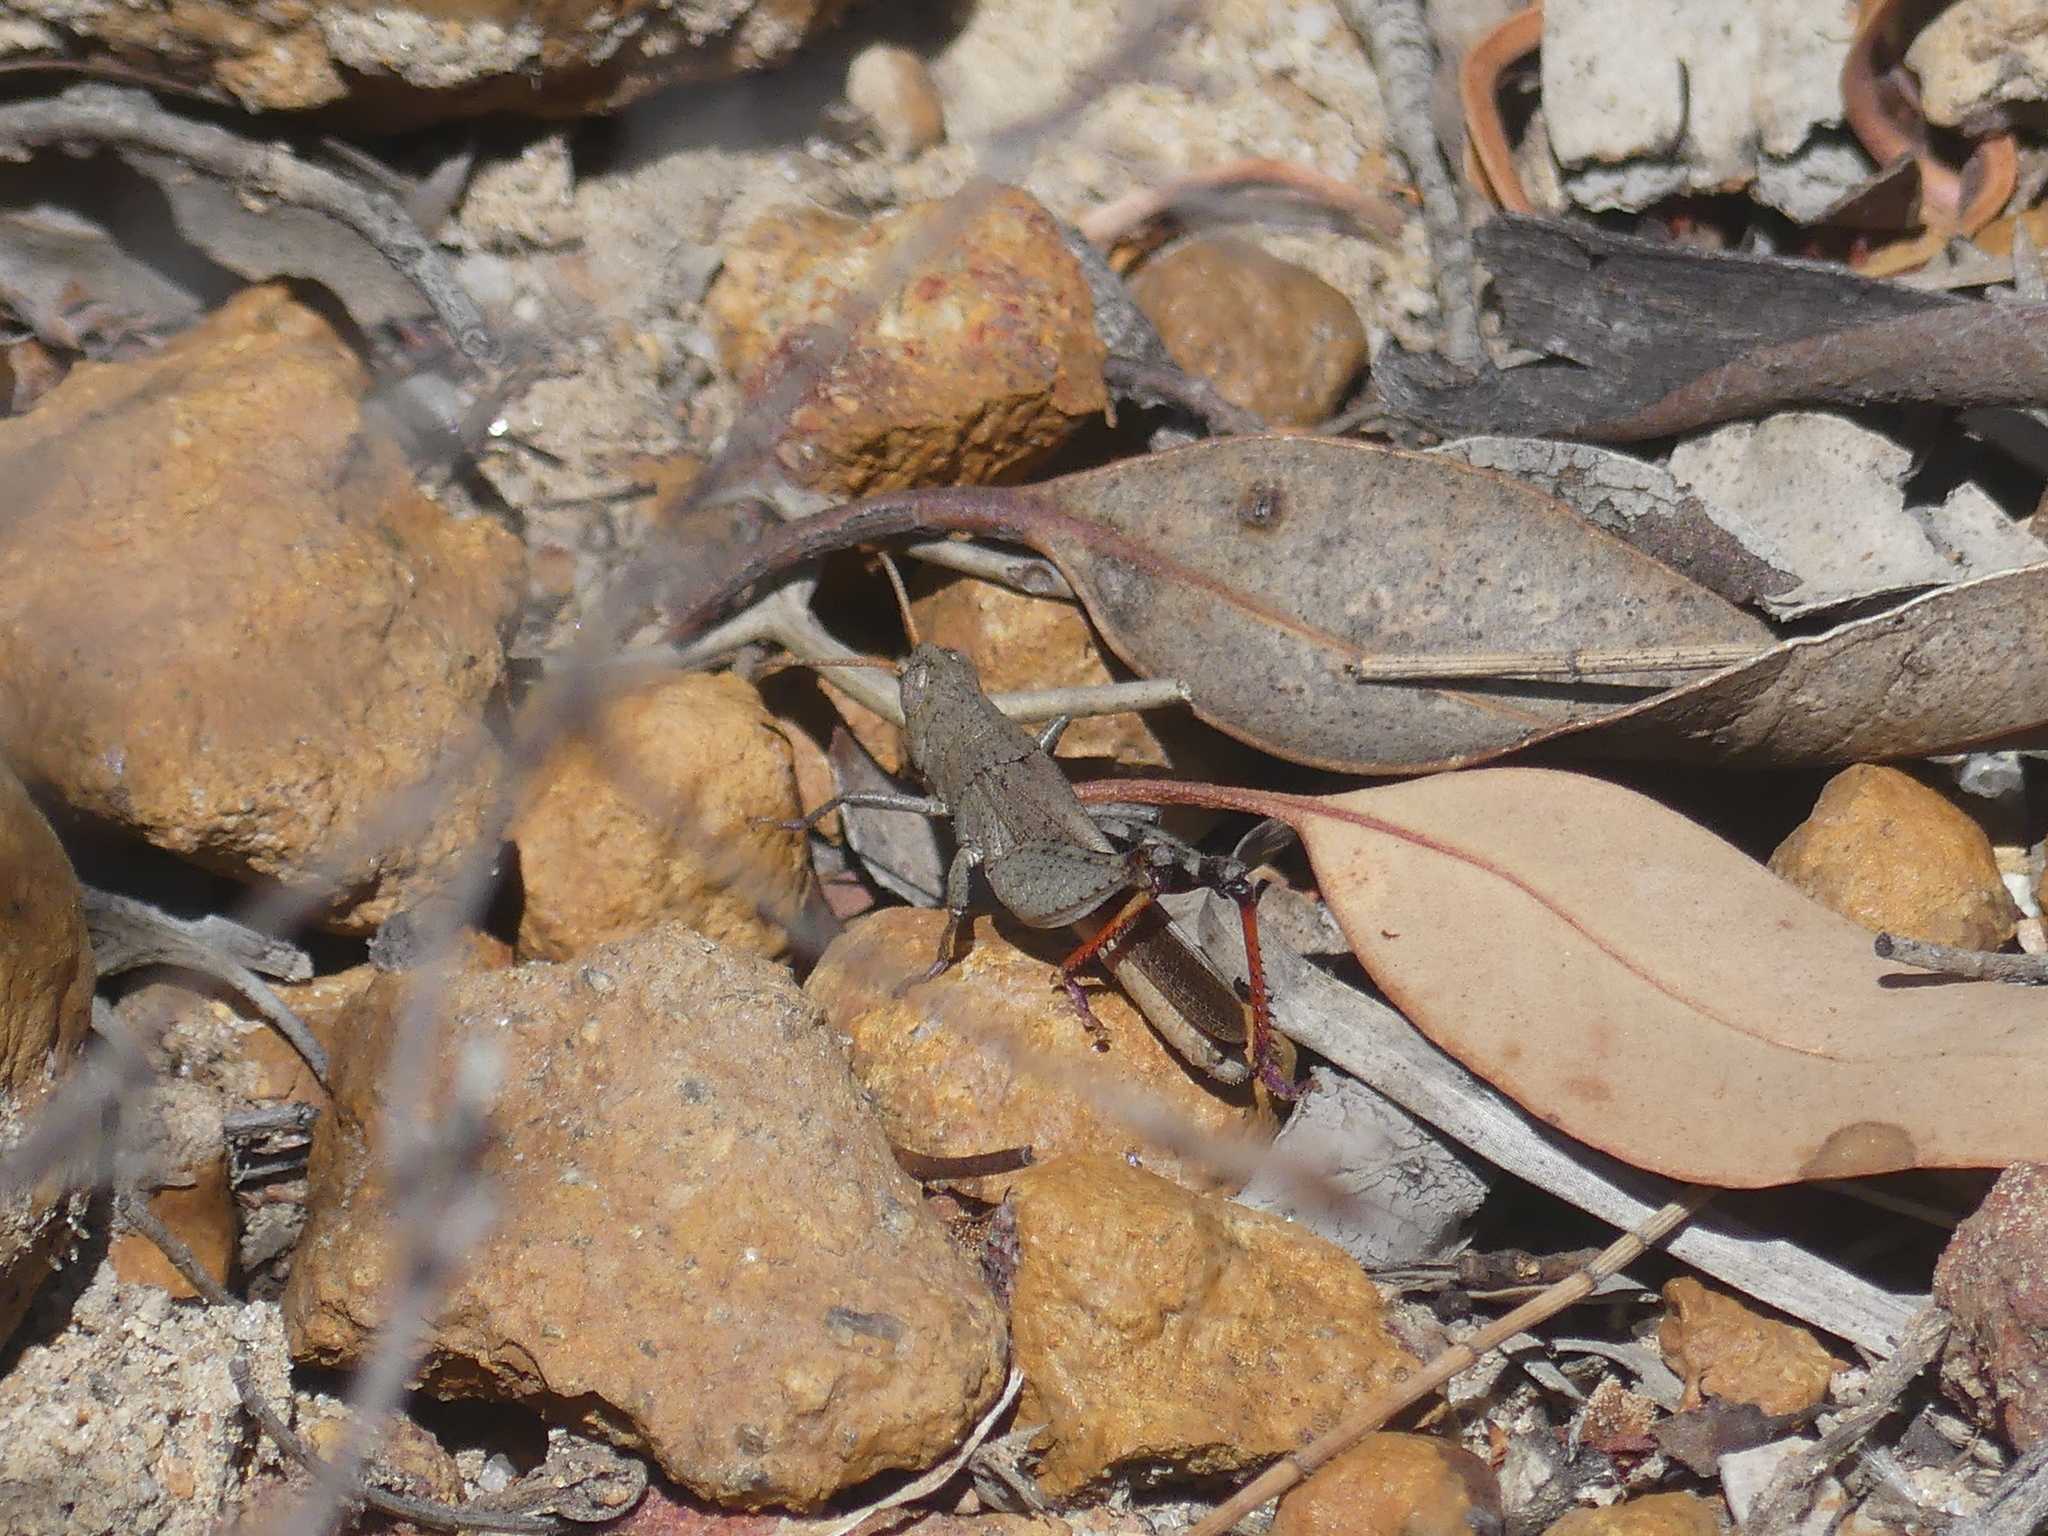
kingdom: Animalia
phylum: Arthropoda
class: Insecta
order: Orthoptera
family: Acrididae
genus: Peakesia
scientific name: Peakesia brunnea
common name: Grey peakesia
